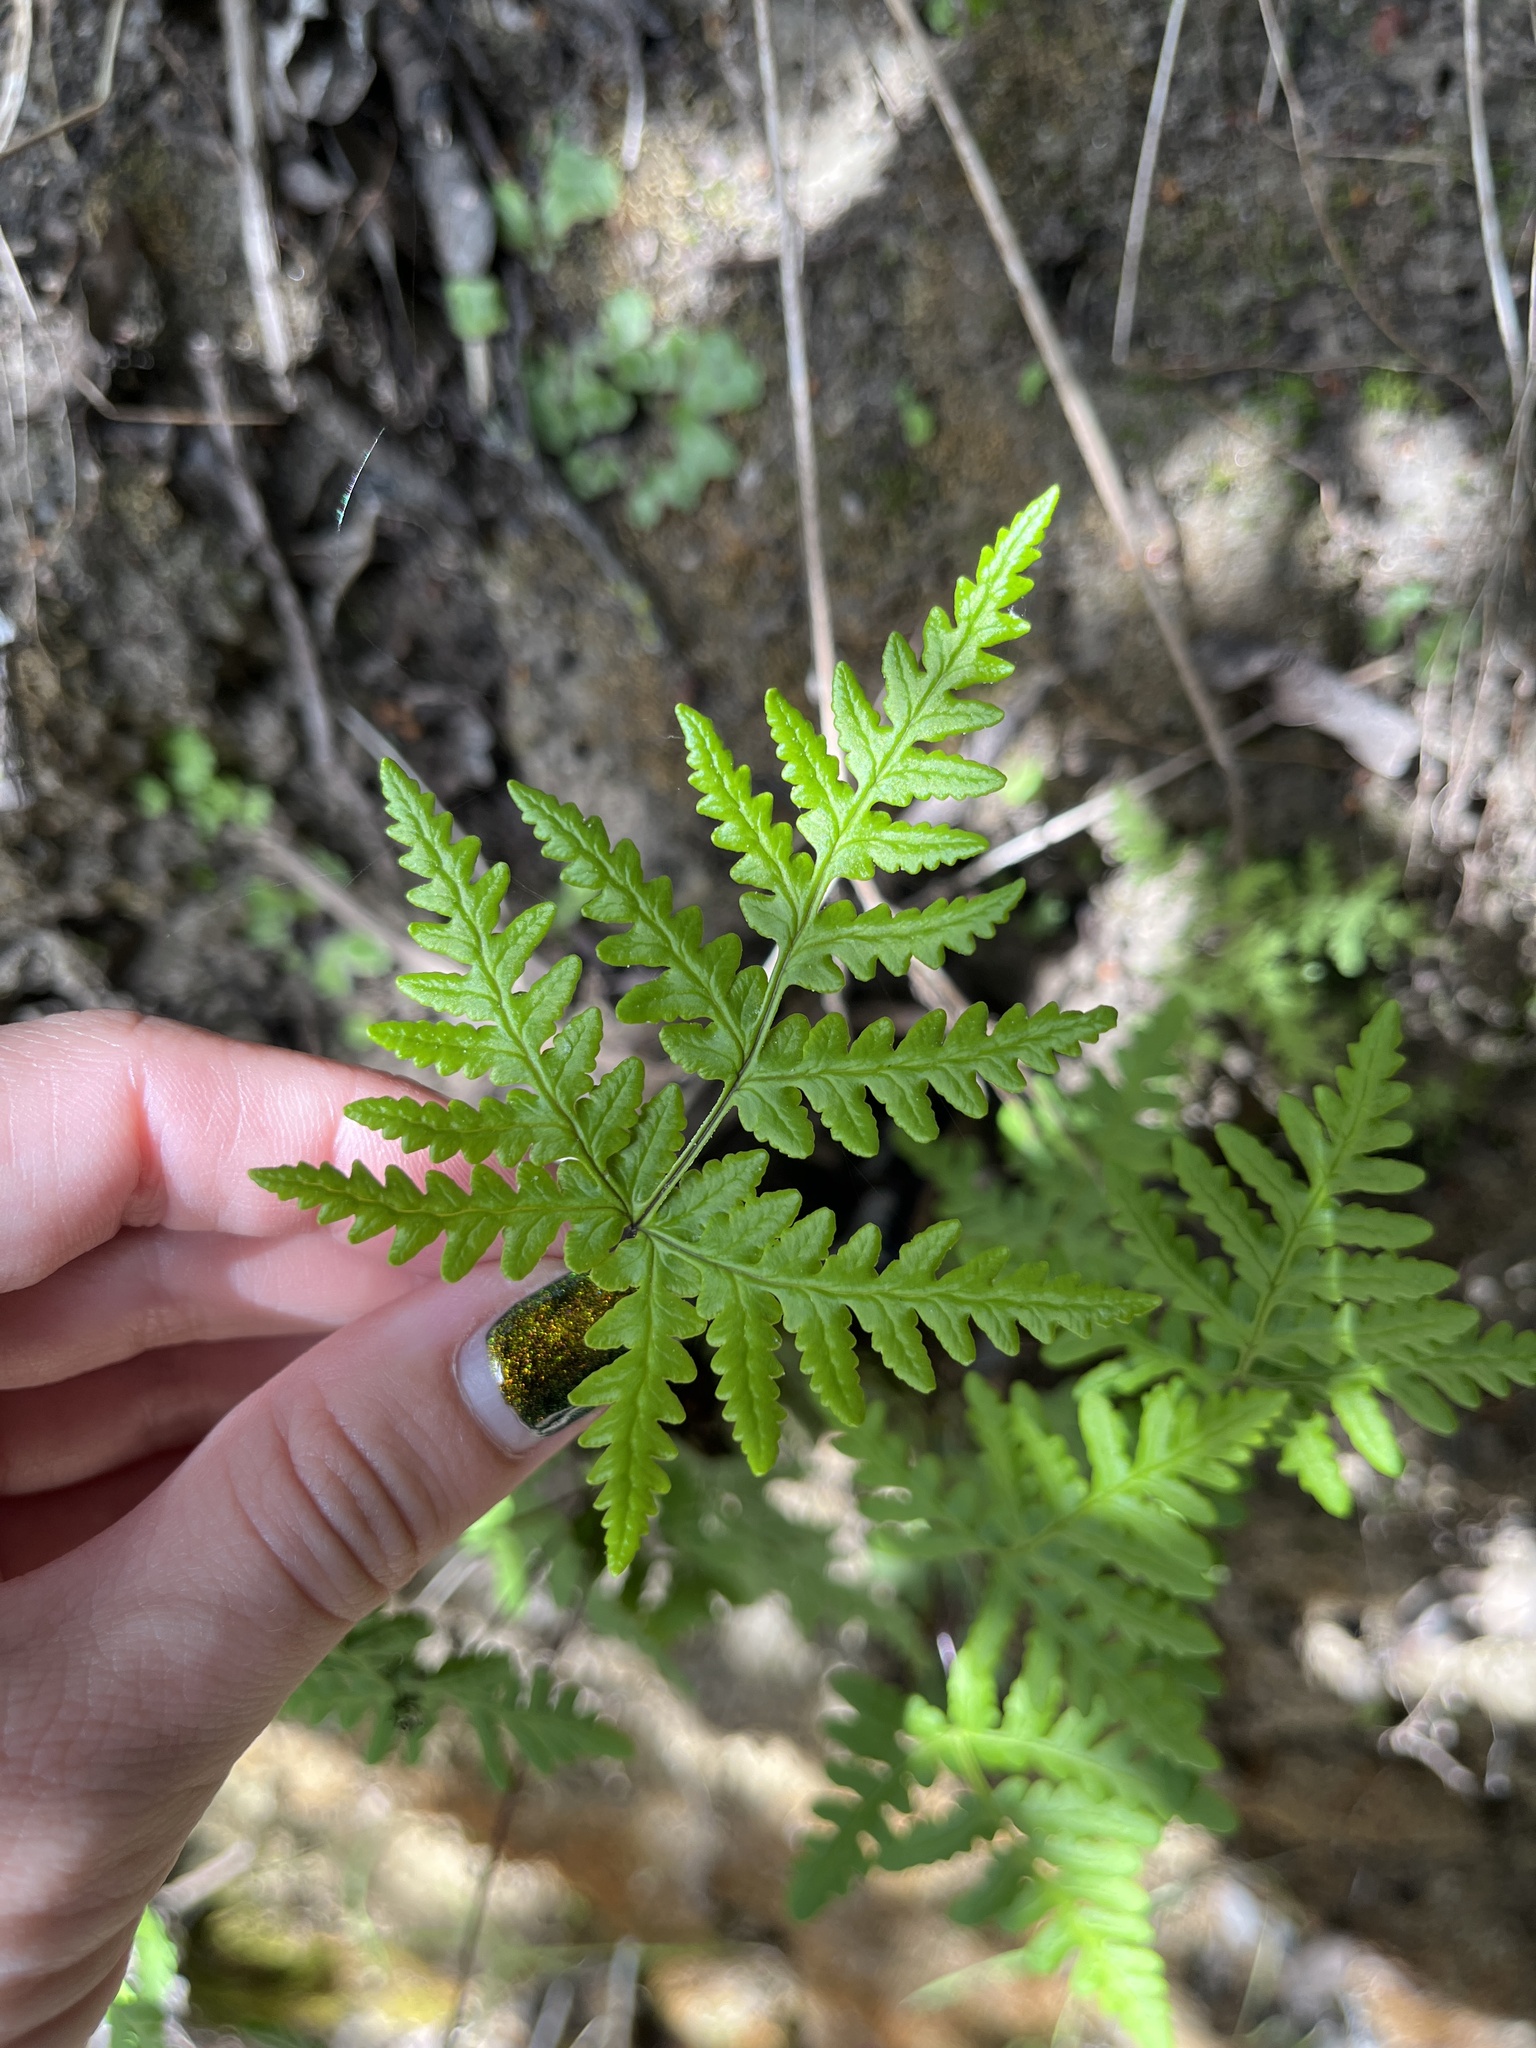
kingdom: Plantae
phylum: Tracheophyta
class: Polypodiopsida
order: Polypodiales
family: Pteridaceae
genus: Pentagramma
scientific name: Pentagramma triangularis
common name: Gold fern
